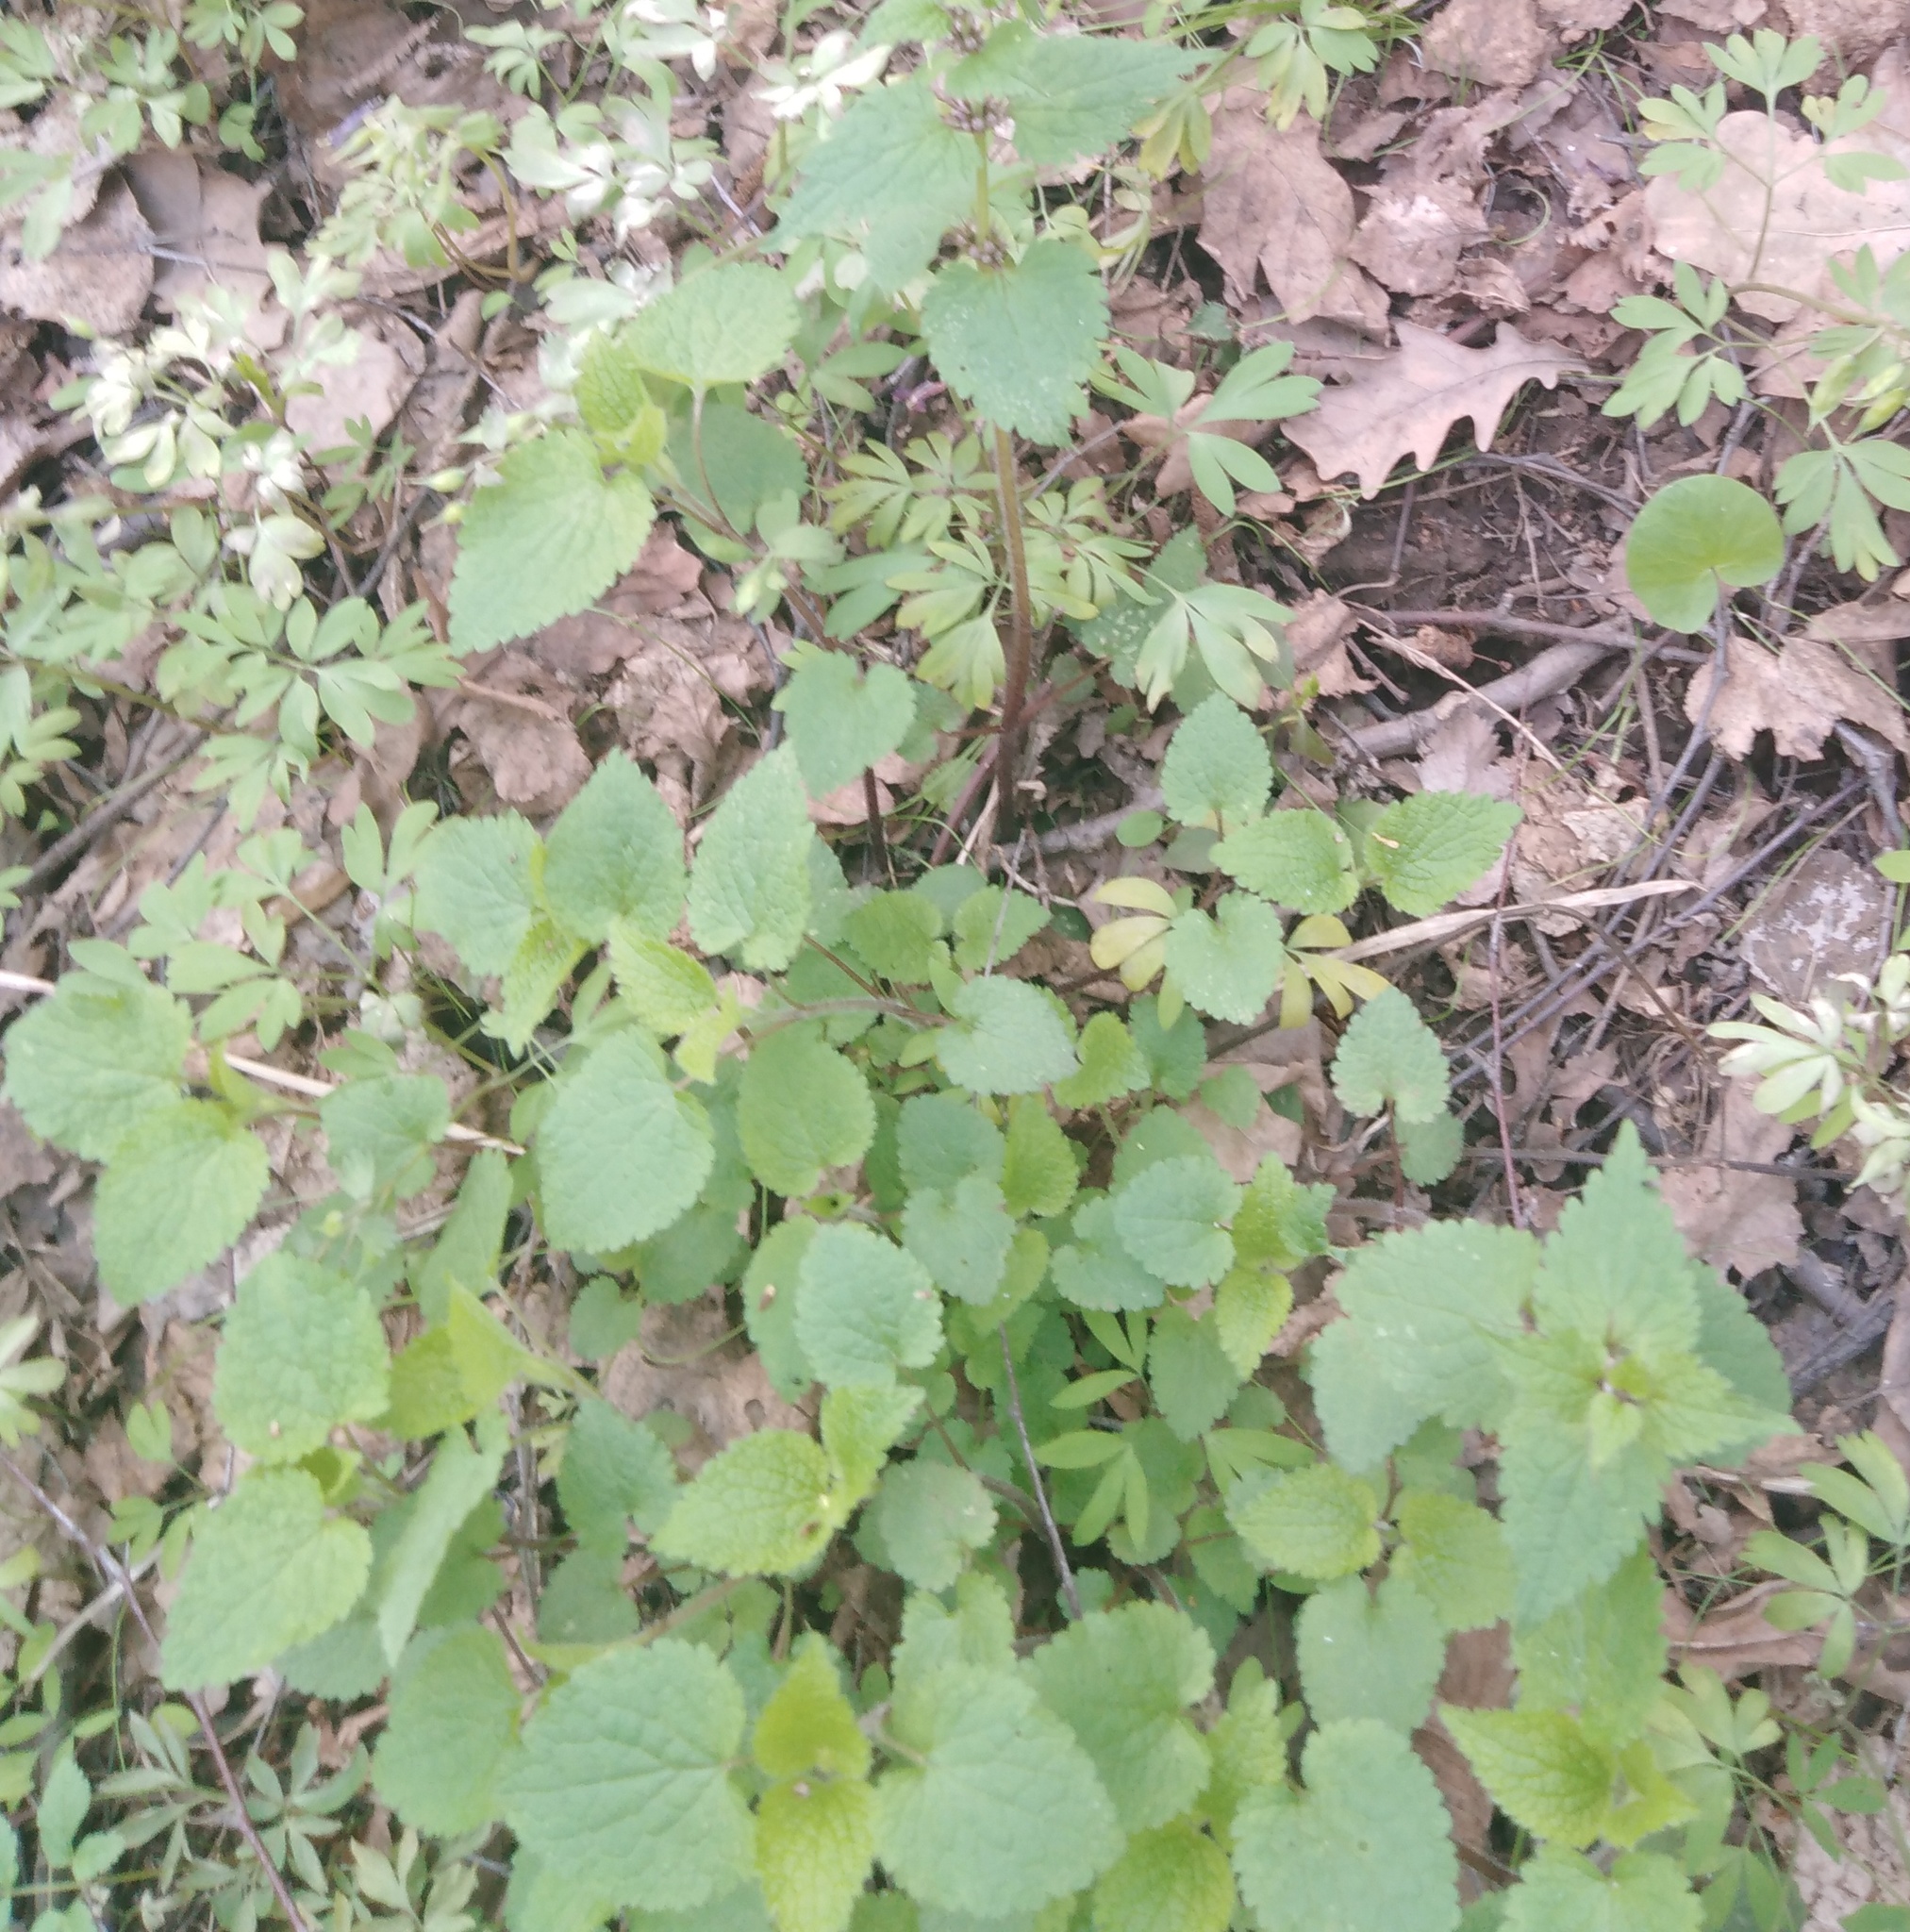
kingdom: Plantae
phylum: Tracheophyta
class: Magnoliopsida
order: Lamiales
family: Lamiaceae
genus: Lamium
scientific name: Lamium maculatum
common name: Spotted dead-nettle
